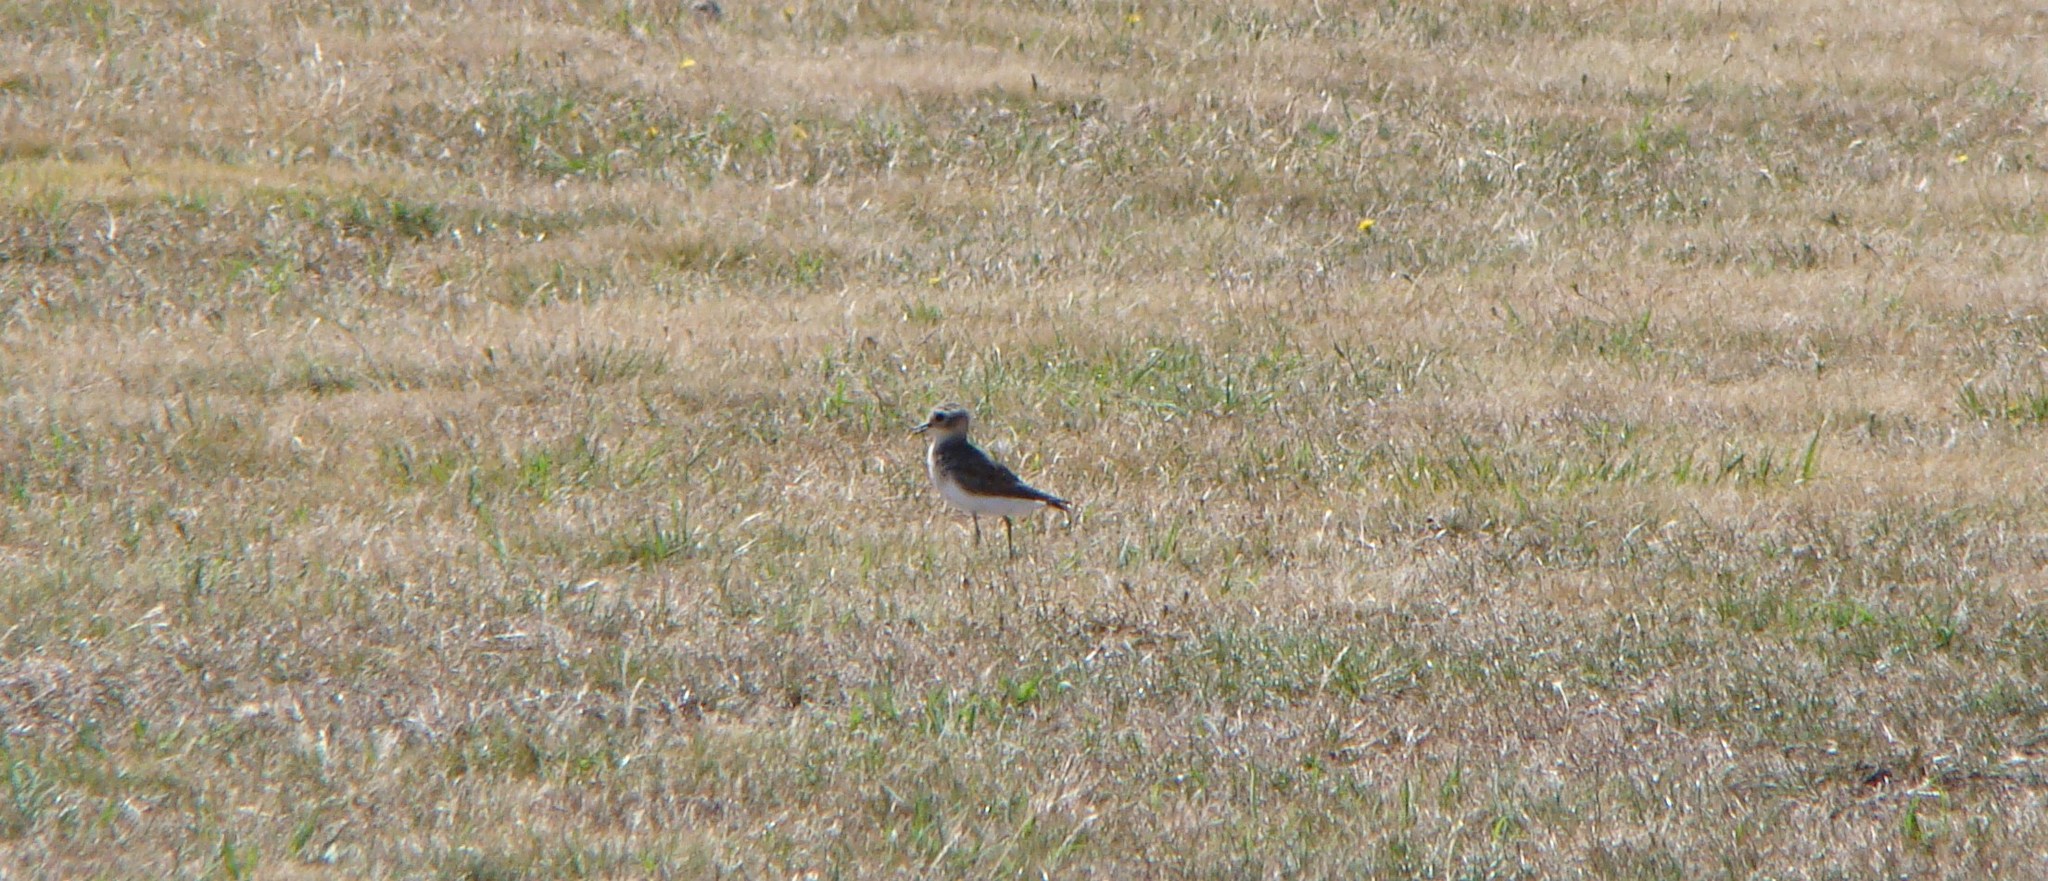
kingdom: Animalia
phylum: Chordata
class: Aves
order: Charadriiformes
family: Charadriidae
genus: Anarhynchus
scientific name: Anarhynchus
